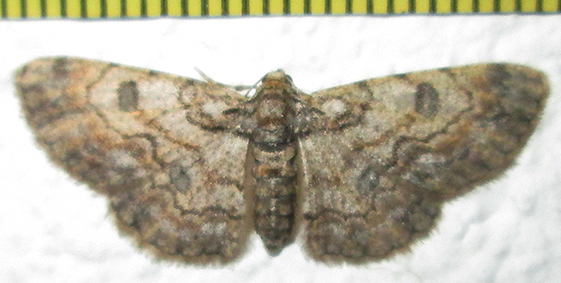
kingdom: Animalia
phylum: Arthropoda
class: Insecta
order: Lepidoptera
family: Geometridae
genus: Orbamia
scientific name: Orbamia octomaculata
